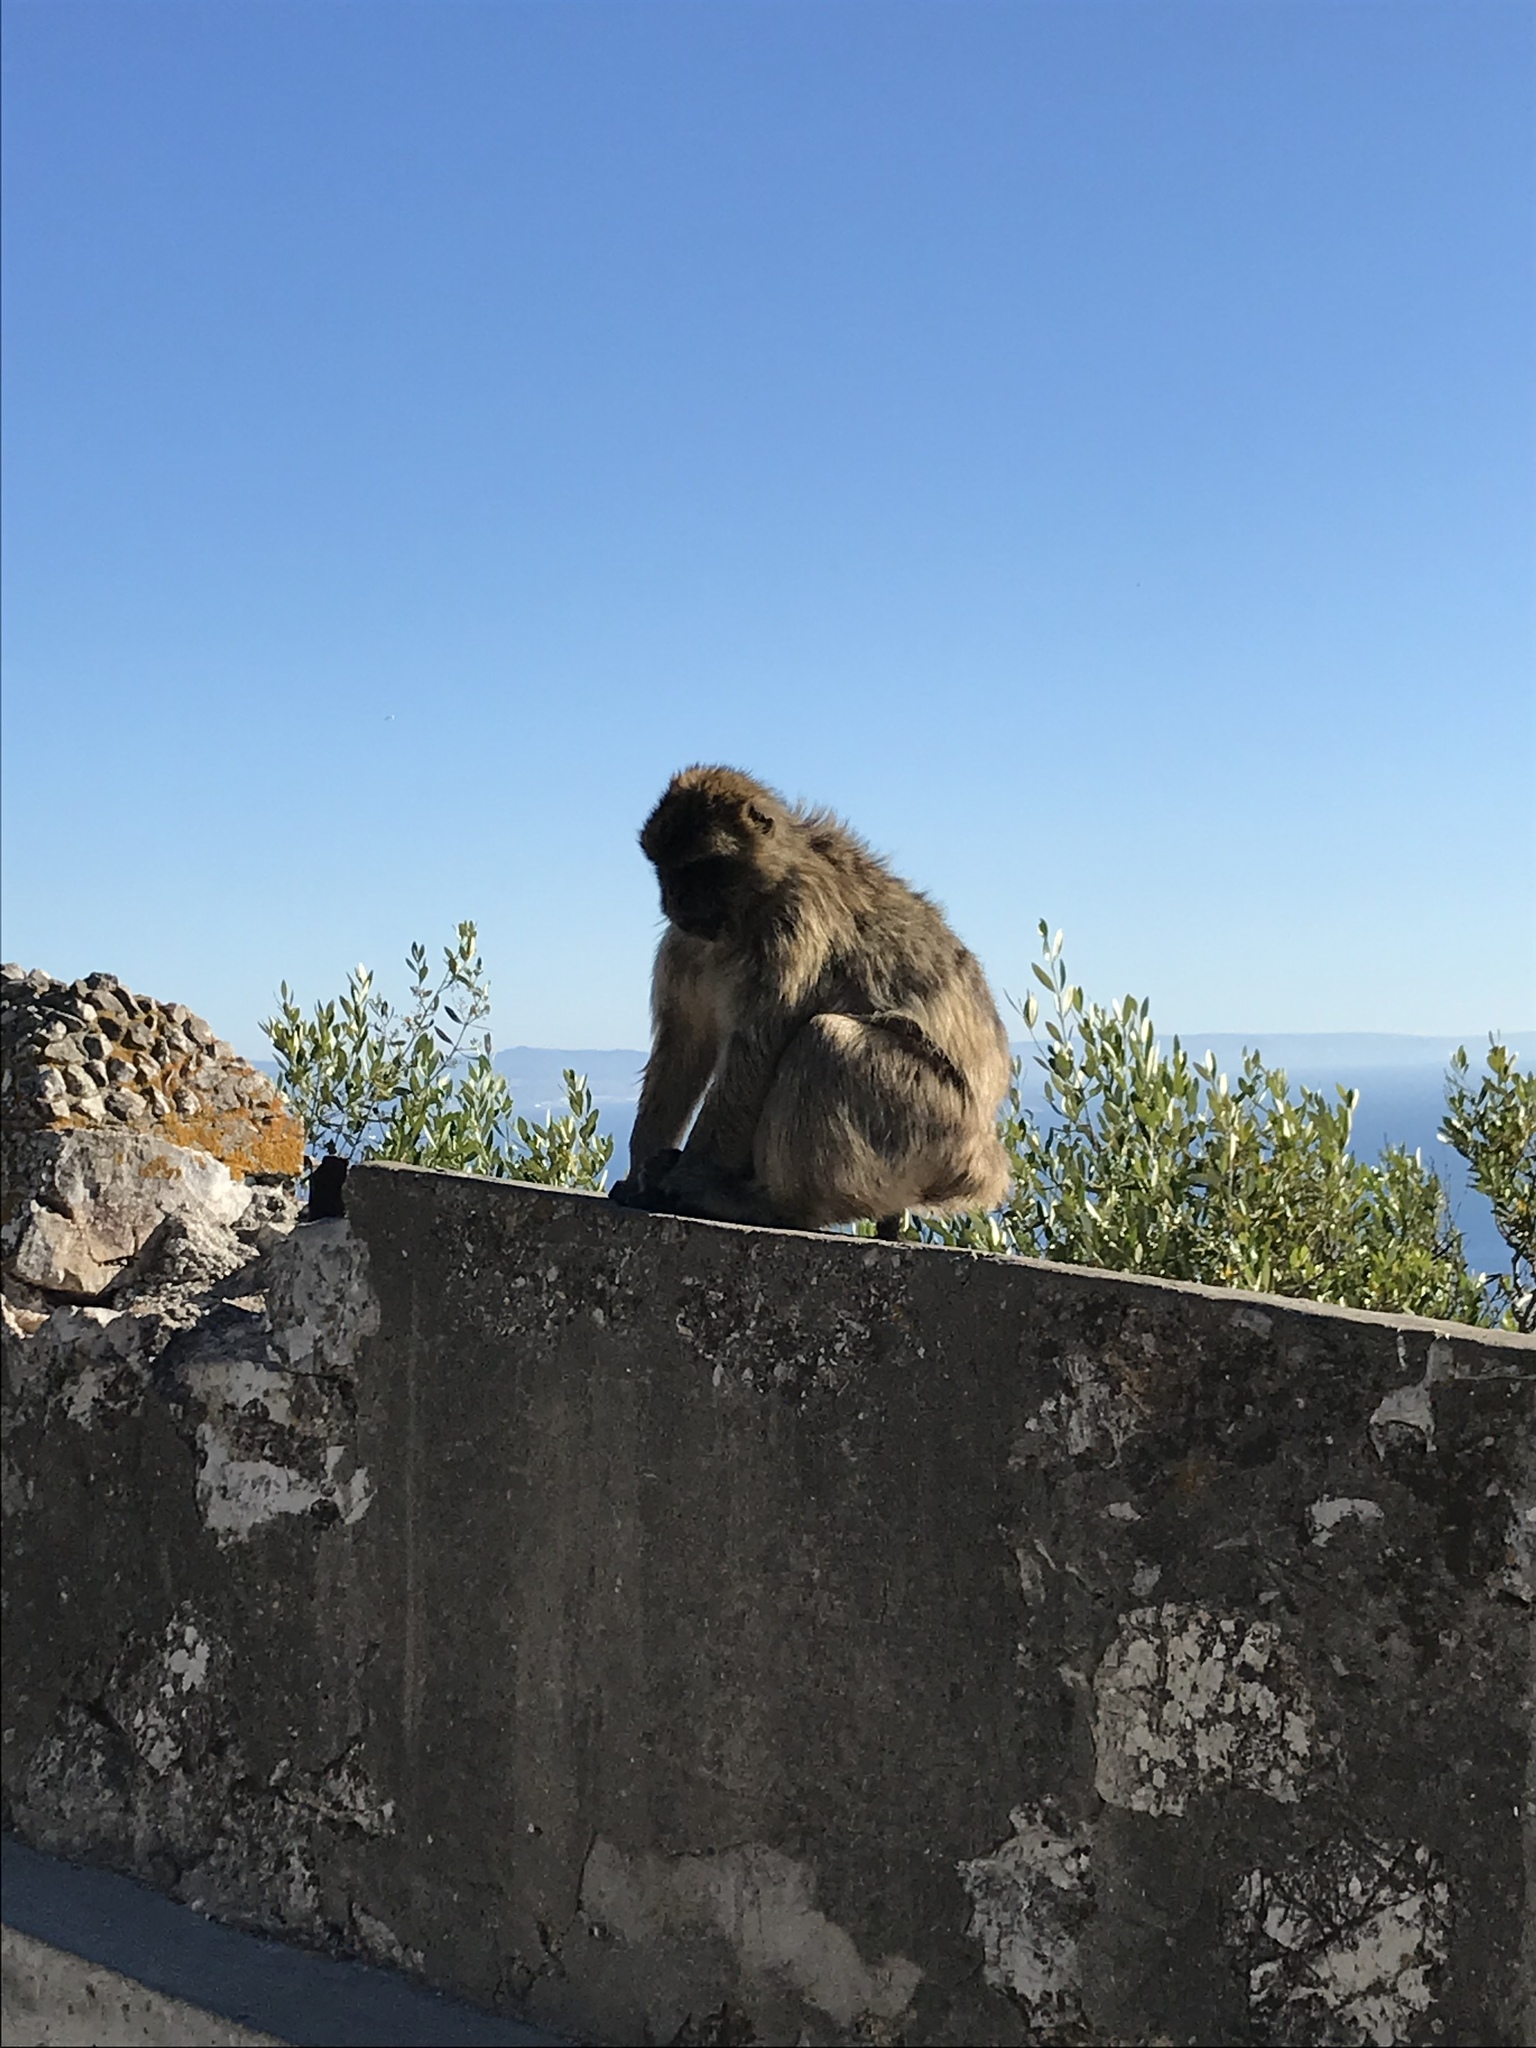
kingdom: Animalia
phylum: Chordata
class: Mammalia
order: Primates
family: Cercopithecidae
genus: Macaca
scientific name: Macaca sylvanus
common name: Barbary macaque
